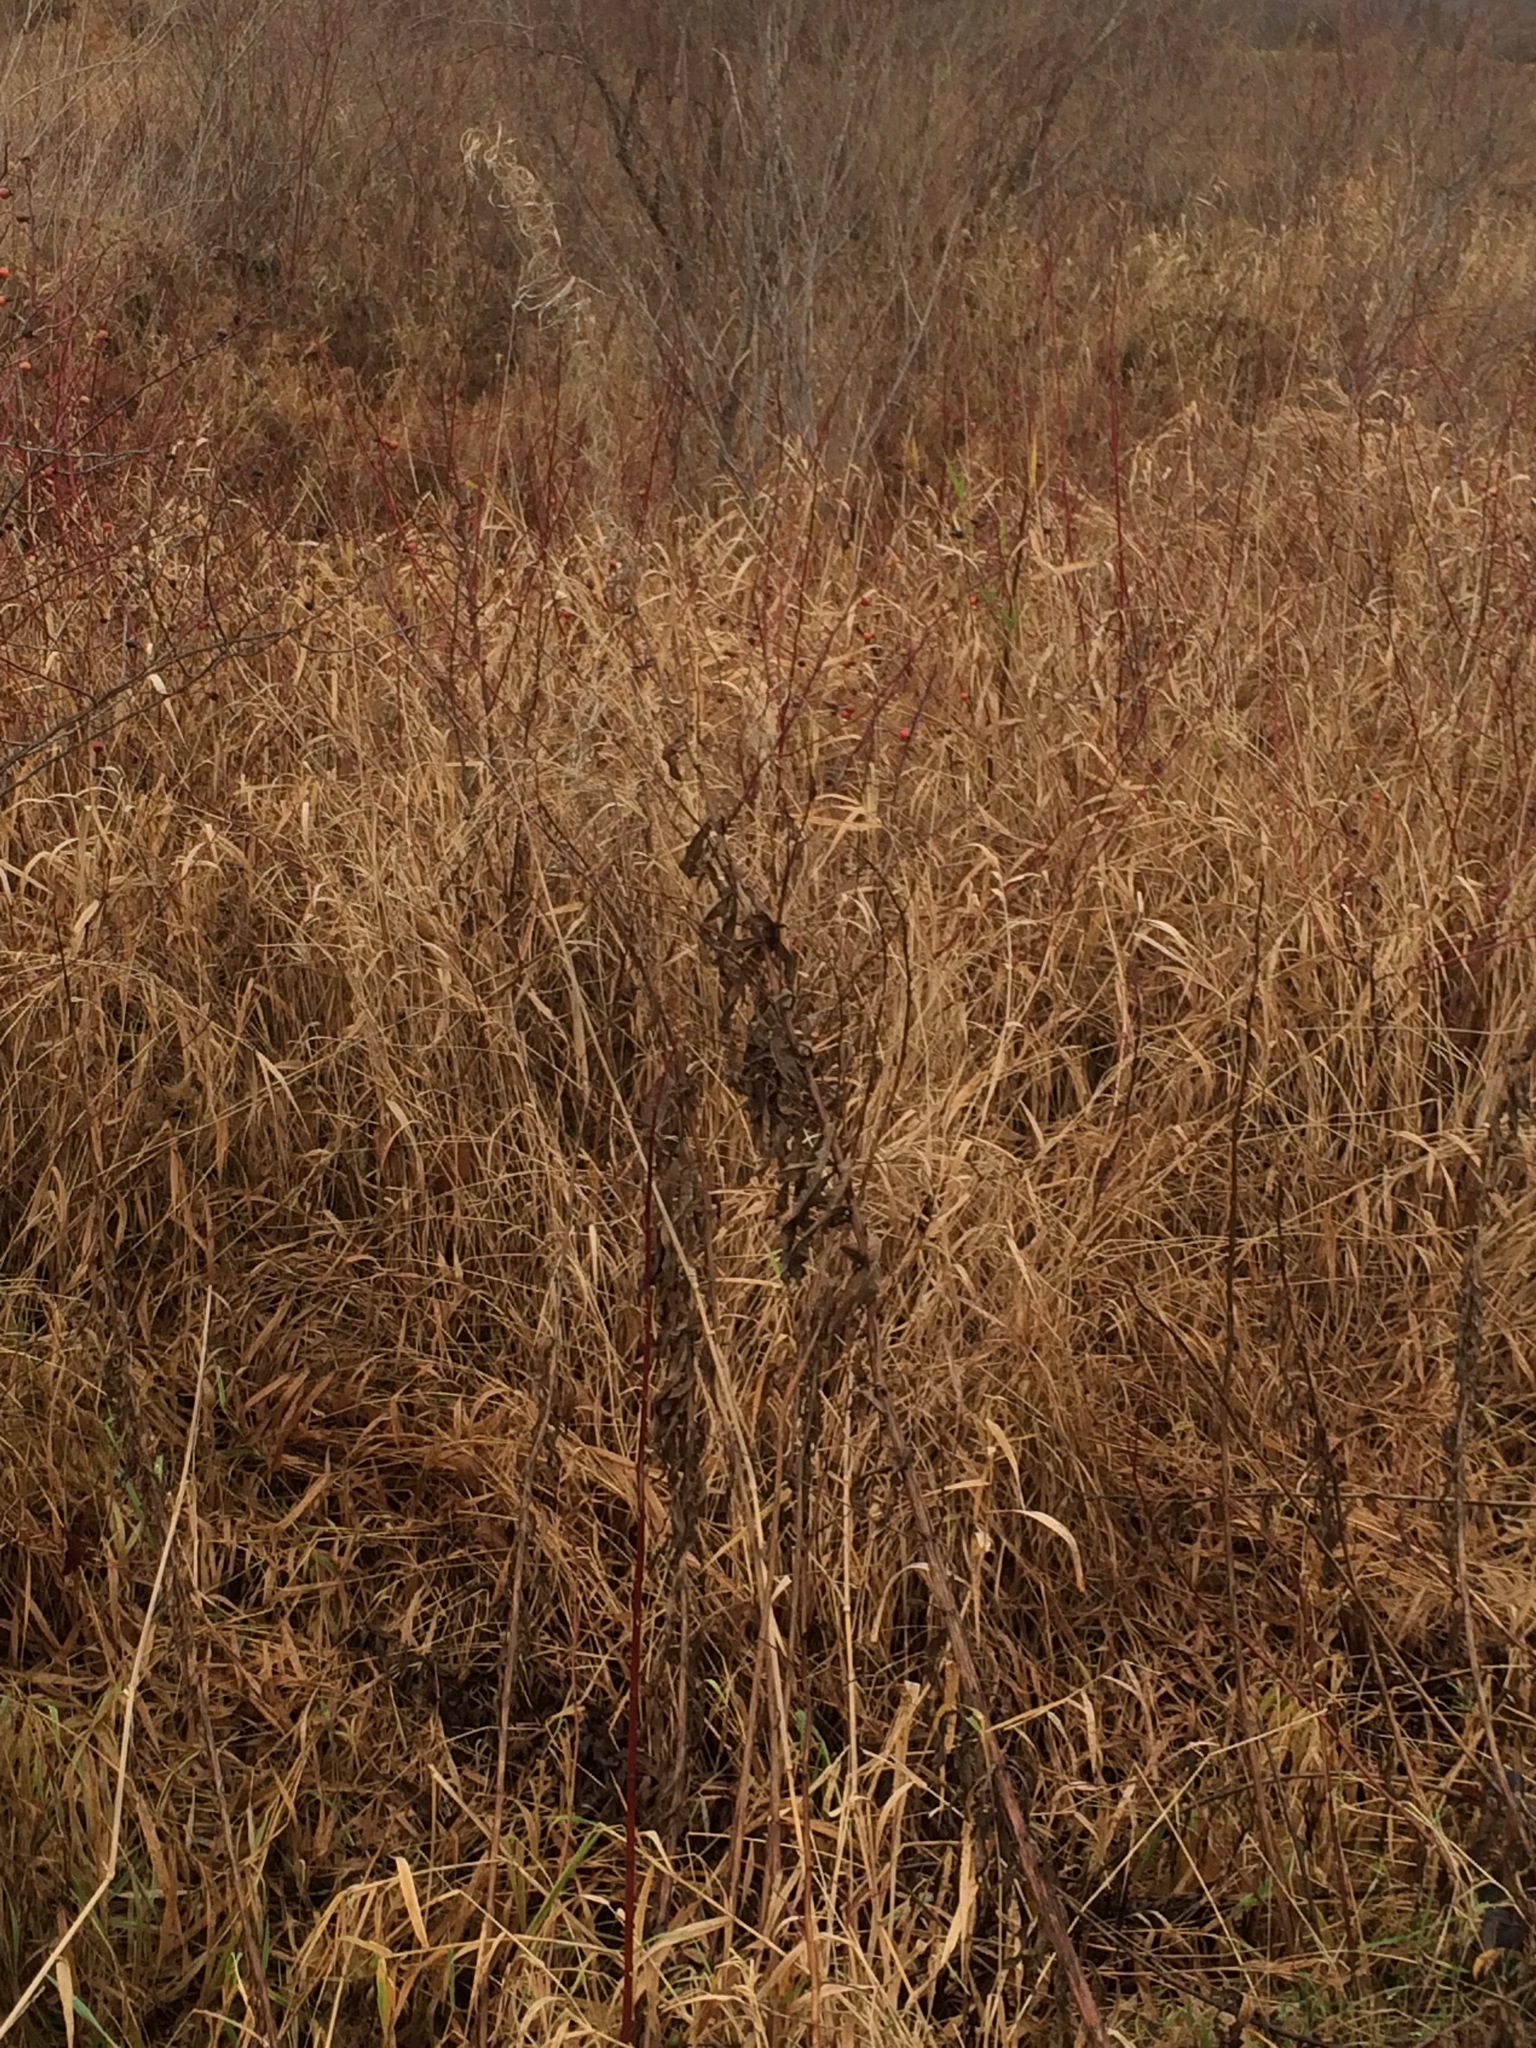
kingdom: Plantae
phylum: Tracheophyta
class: Magnoliopsida
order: Myrtales
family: Onagraceae
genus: Chamaenerion
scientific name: Chamaenerion angustifolium
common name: Fireweed
